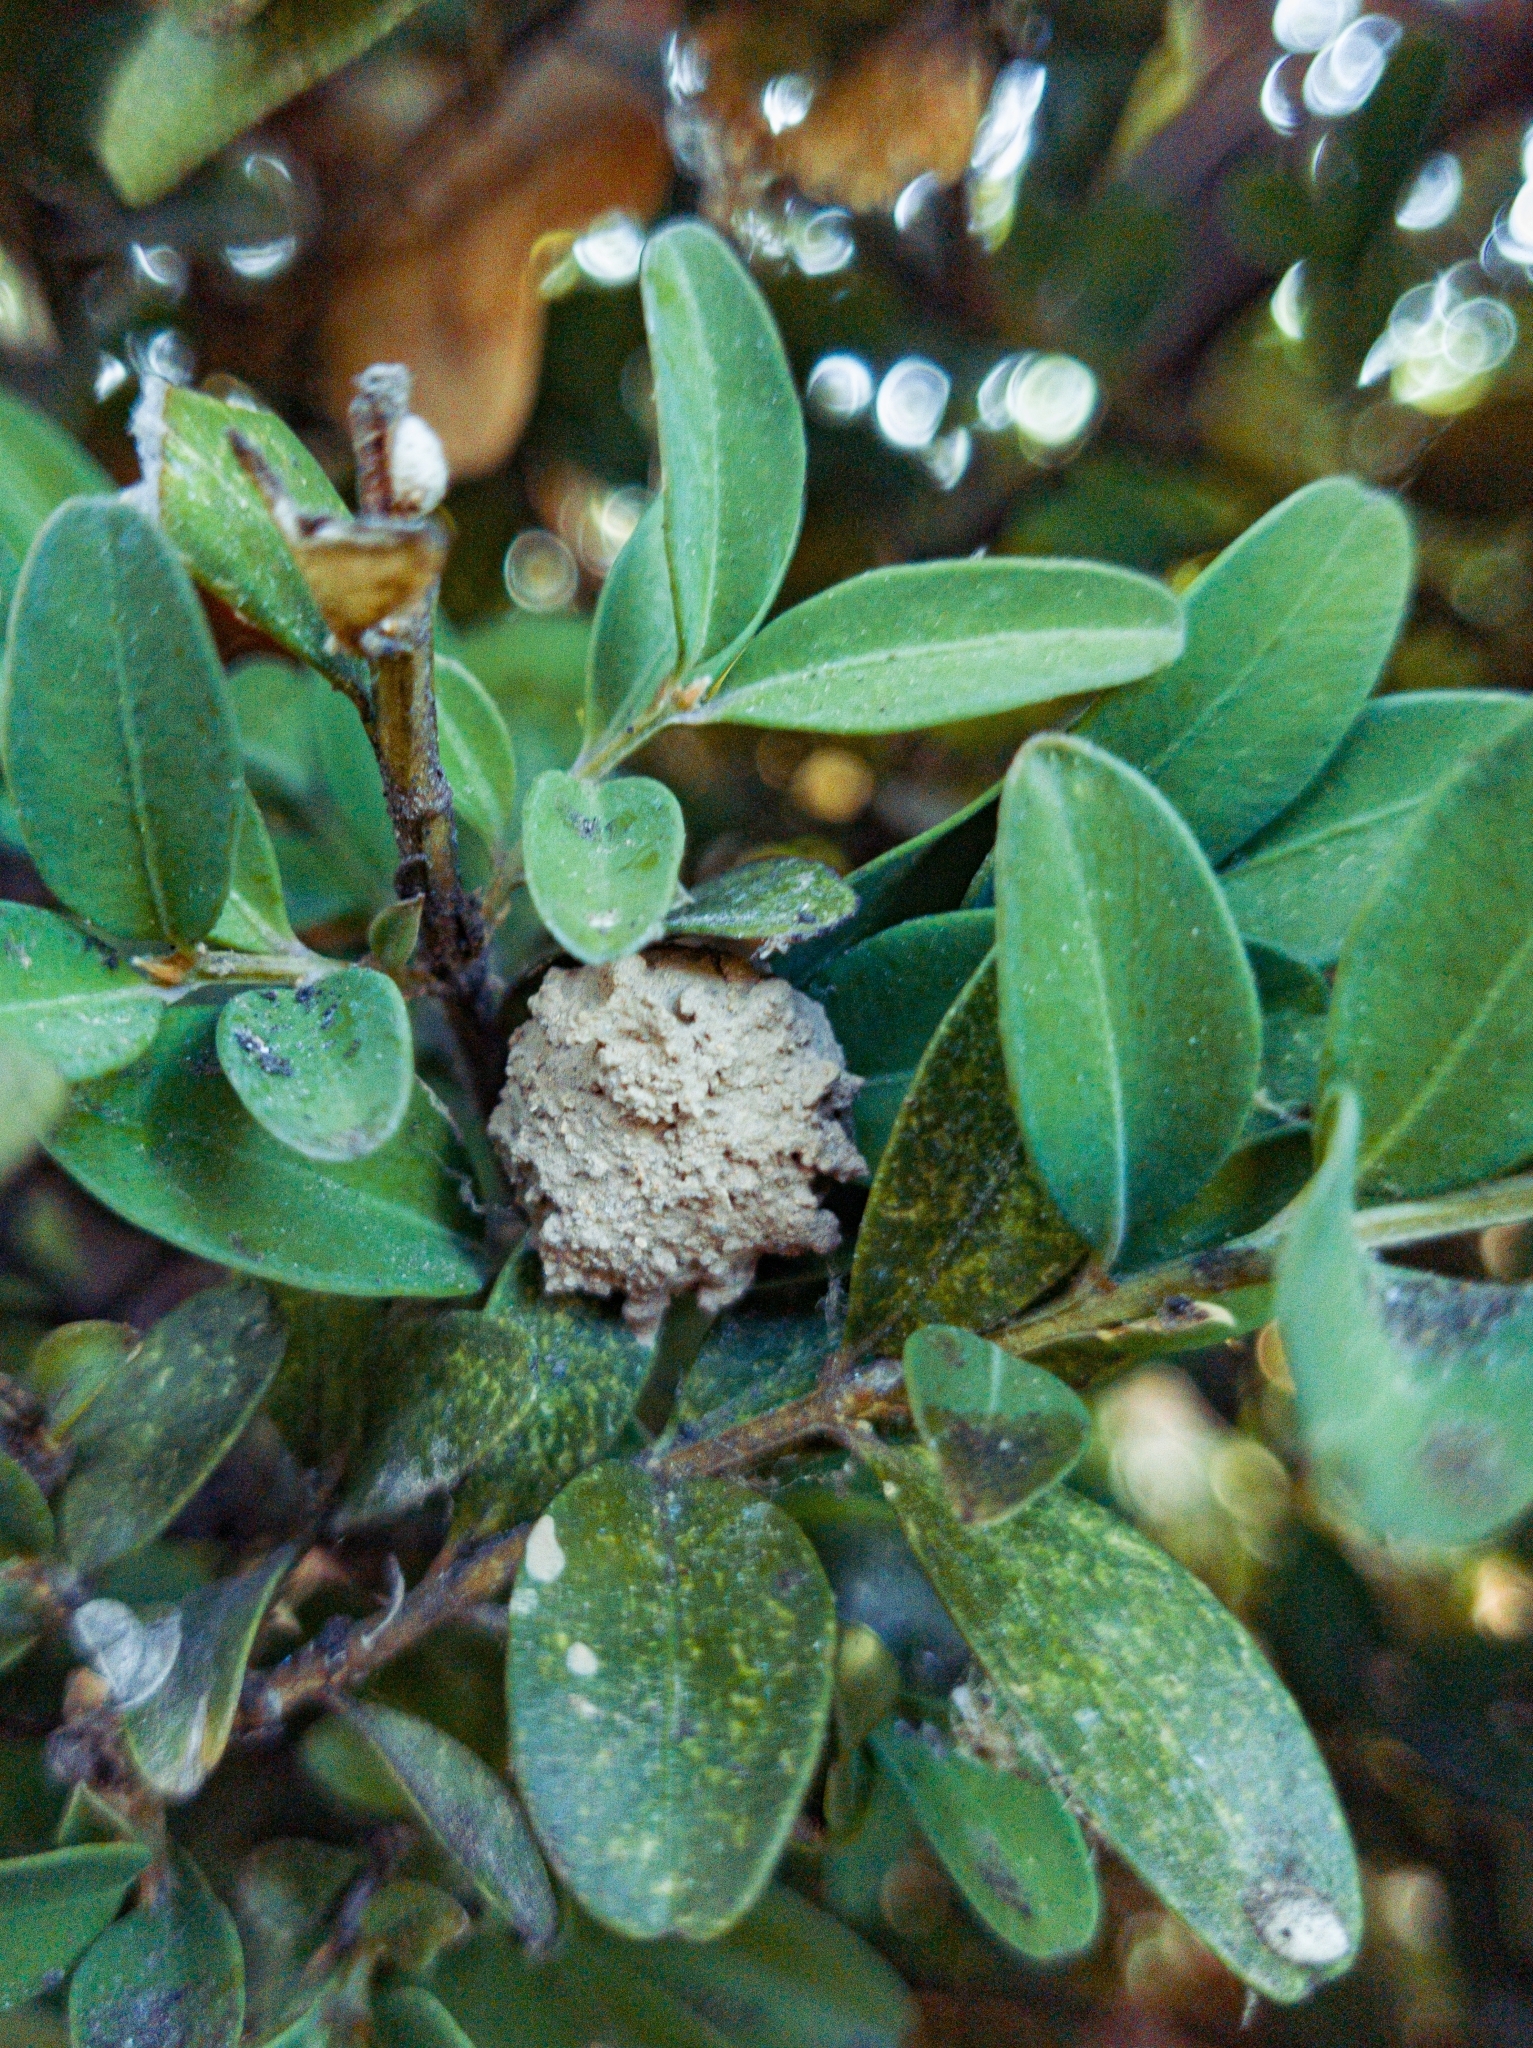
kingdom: Animalia
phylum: Arthropoda
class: Insecta
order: Hymenoptera
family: Vespidae
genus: Eumenes
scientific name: Eumenes
